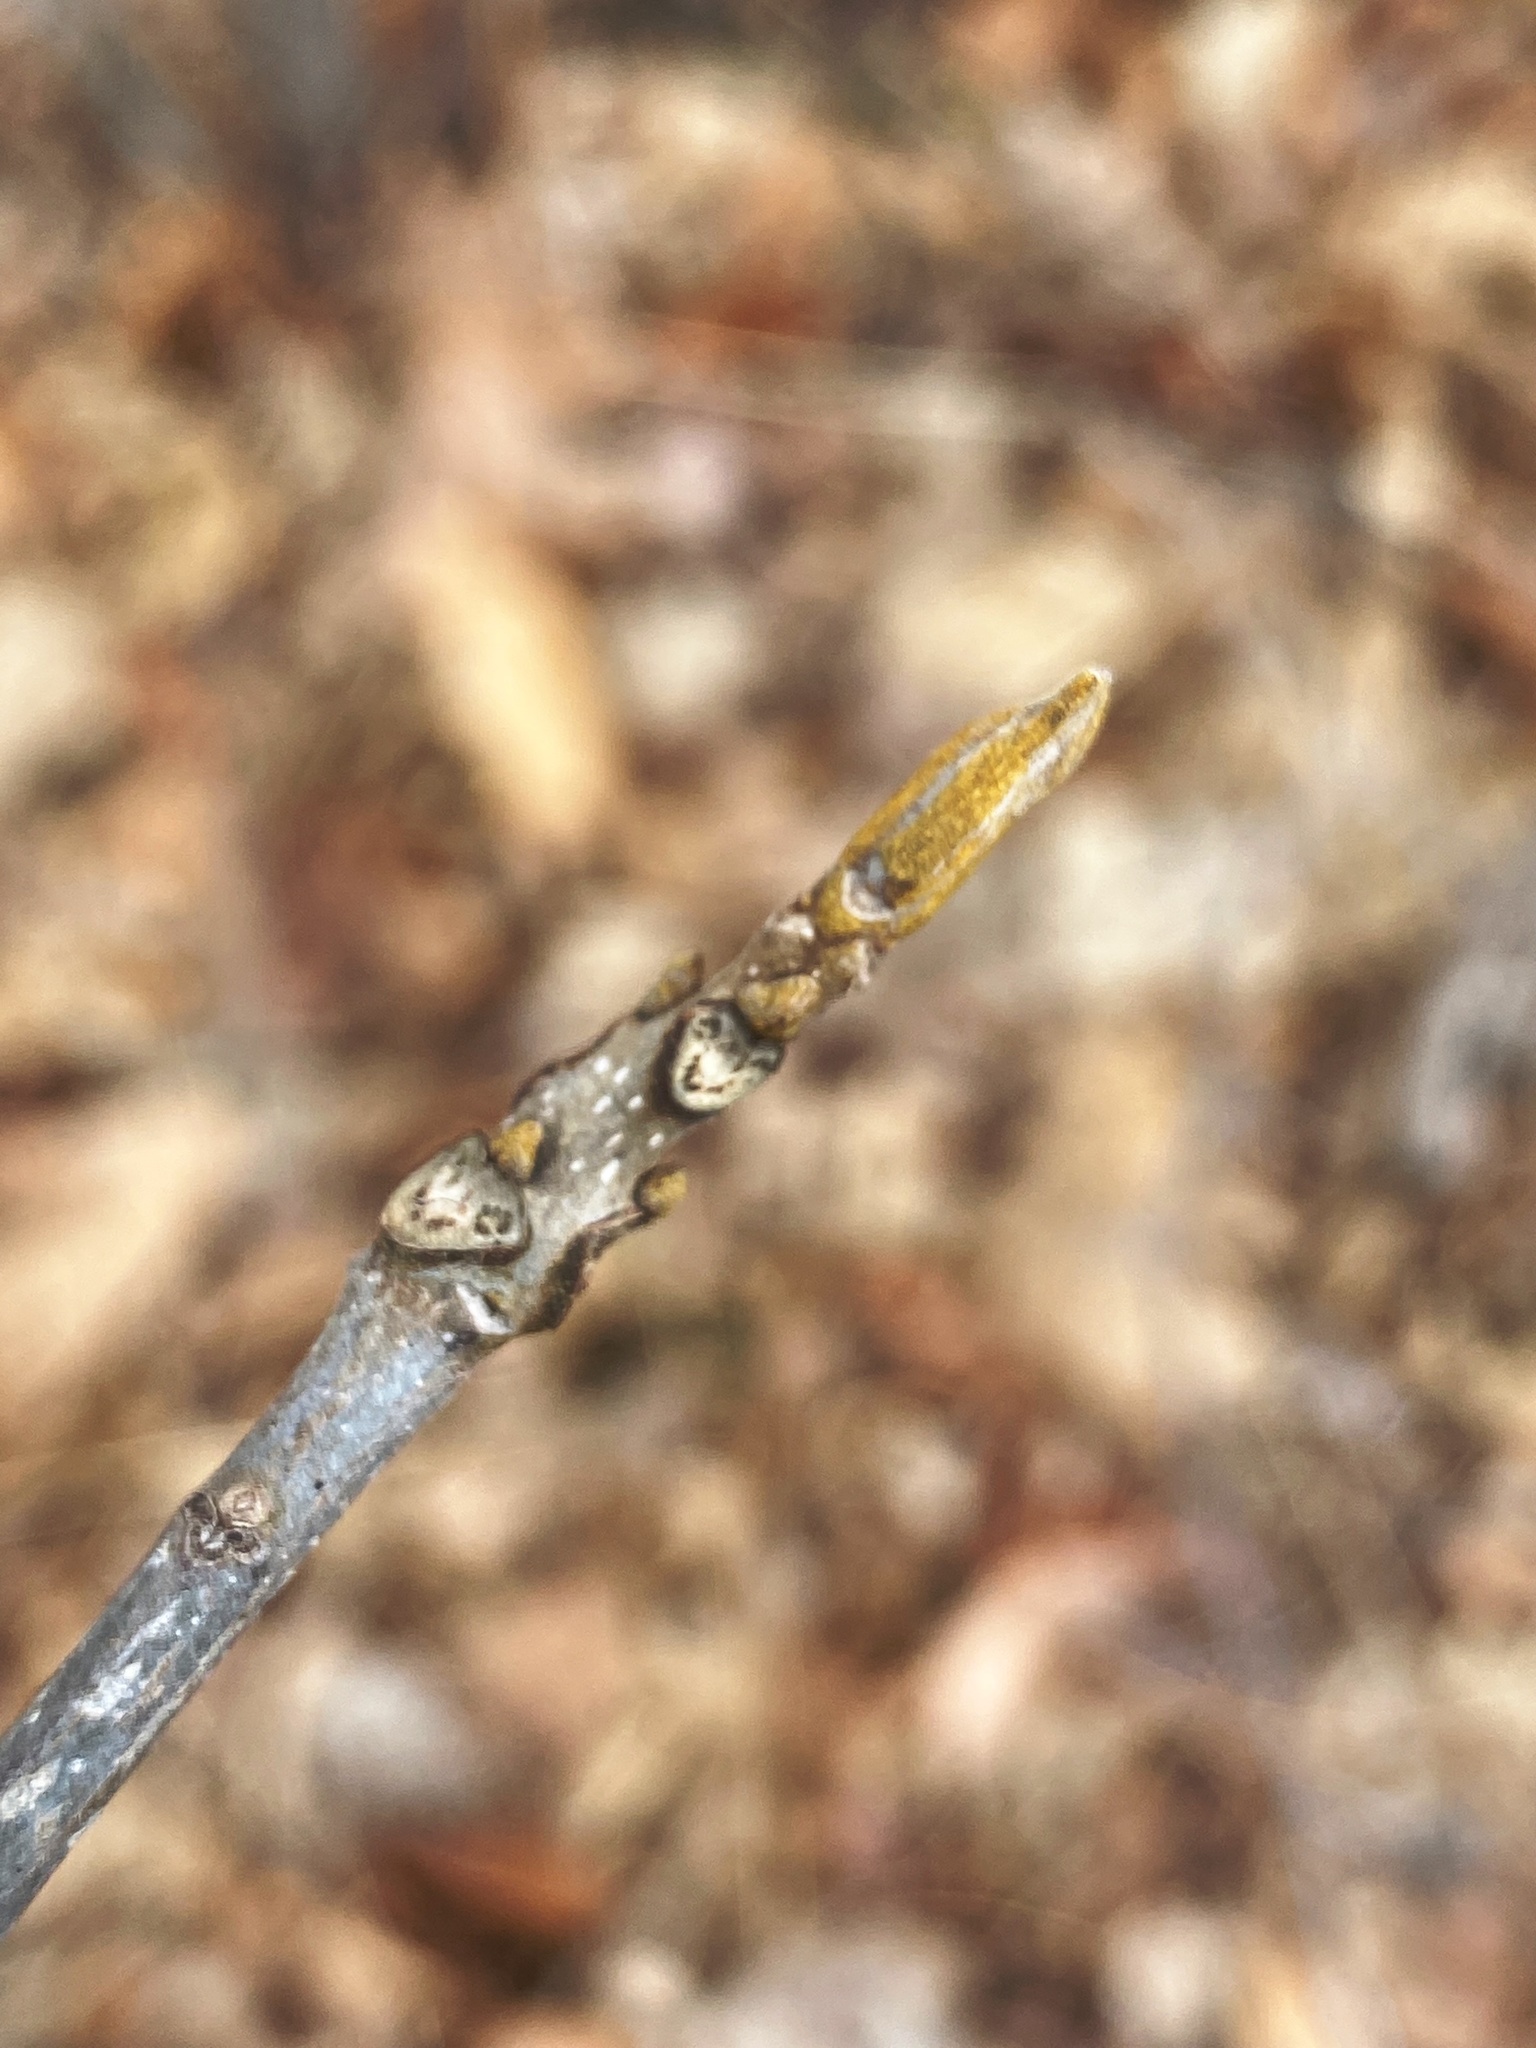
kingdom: Plantae
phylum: Tracheophyta
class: Magnoliopsida
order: Fagales
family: Juglandaceae
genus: Carya
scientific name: Carya cordiformis
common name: Bitternut hickory
